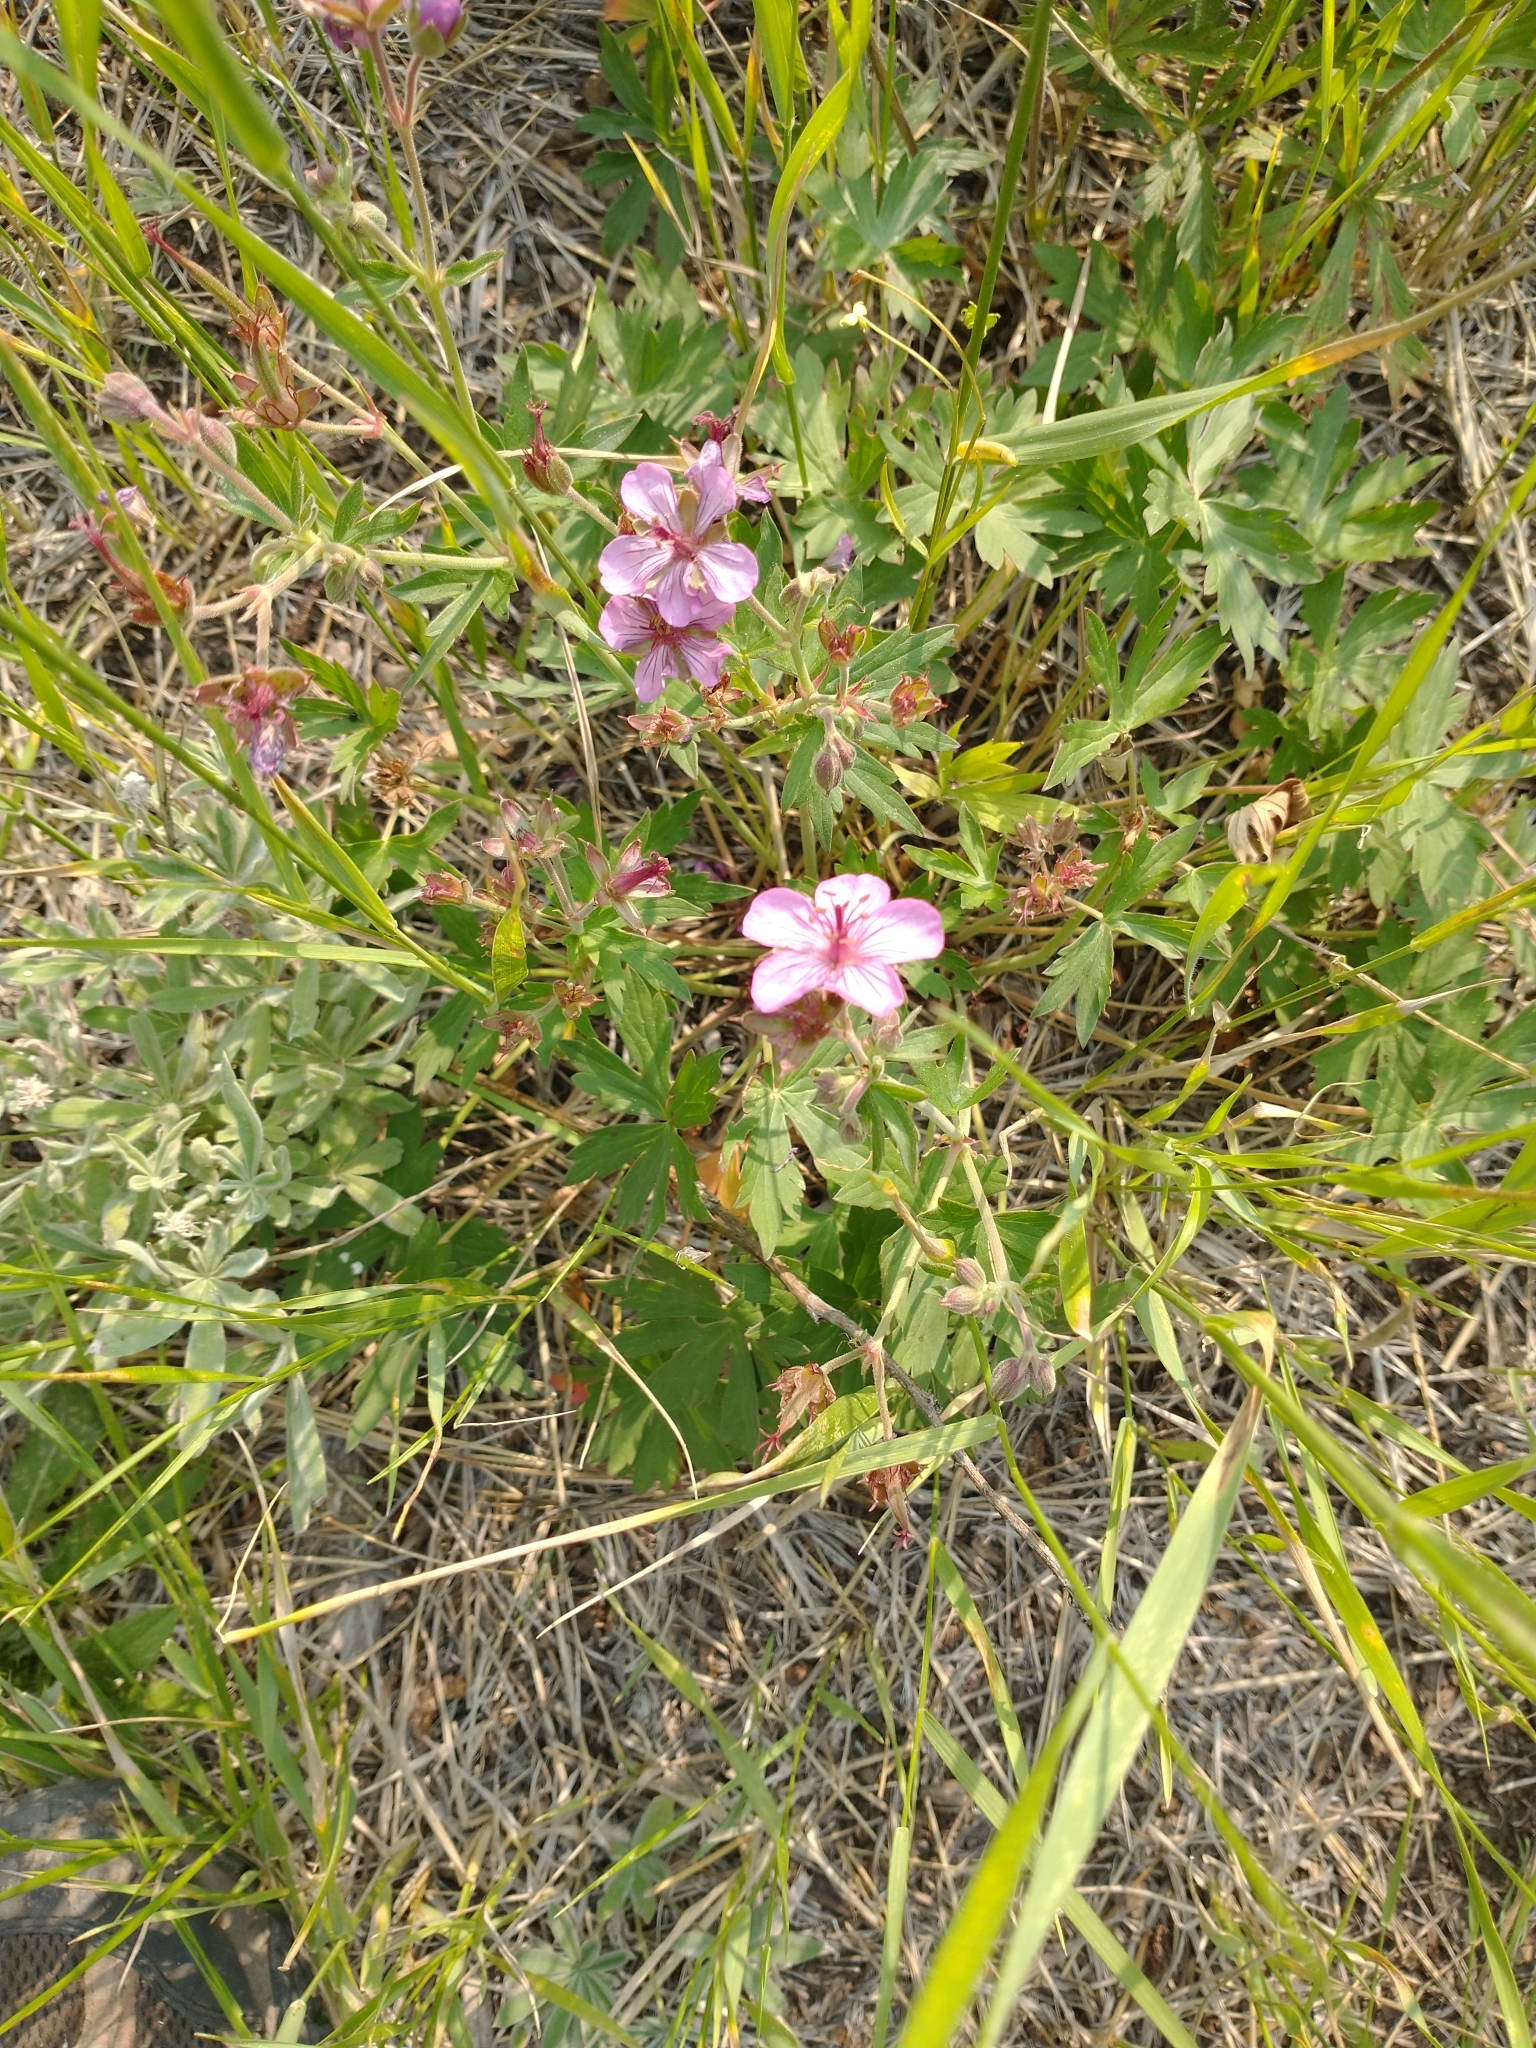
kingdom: Plantae
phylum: Tracheophyta
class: Magnoliopsida
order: Geraniales
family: Geraniaceae
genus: Geranium
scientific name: Geranium viscosissimum
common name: Purple geranium
